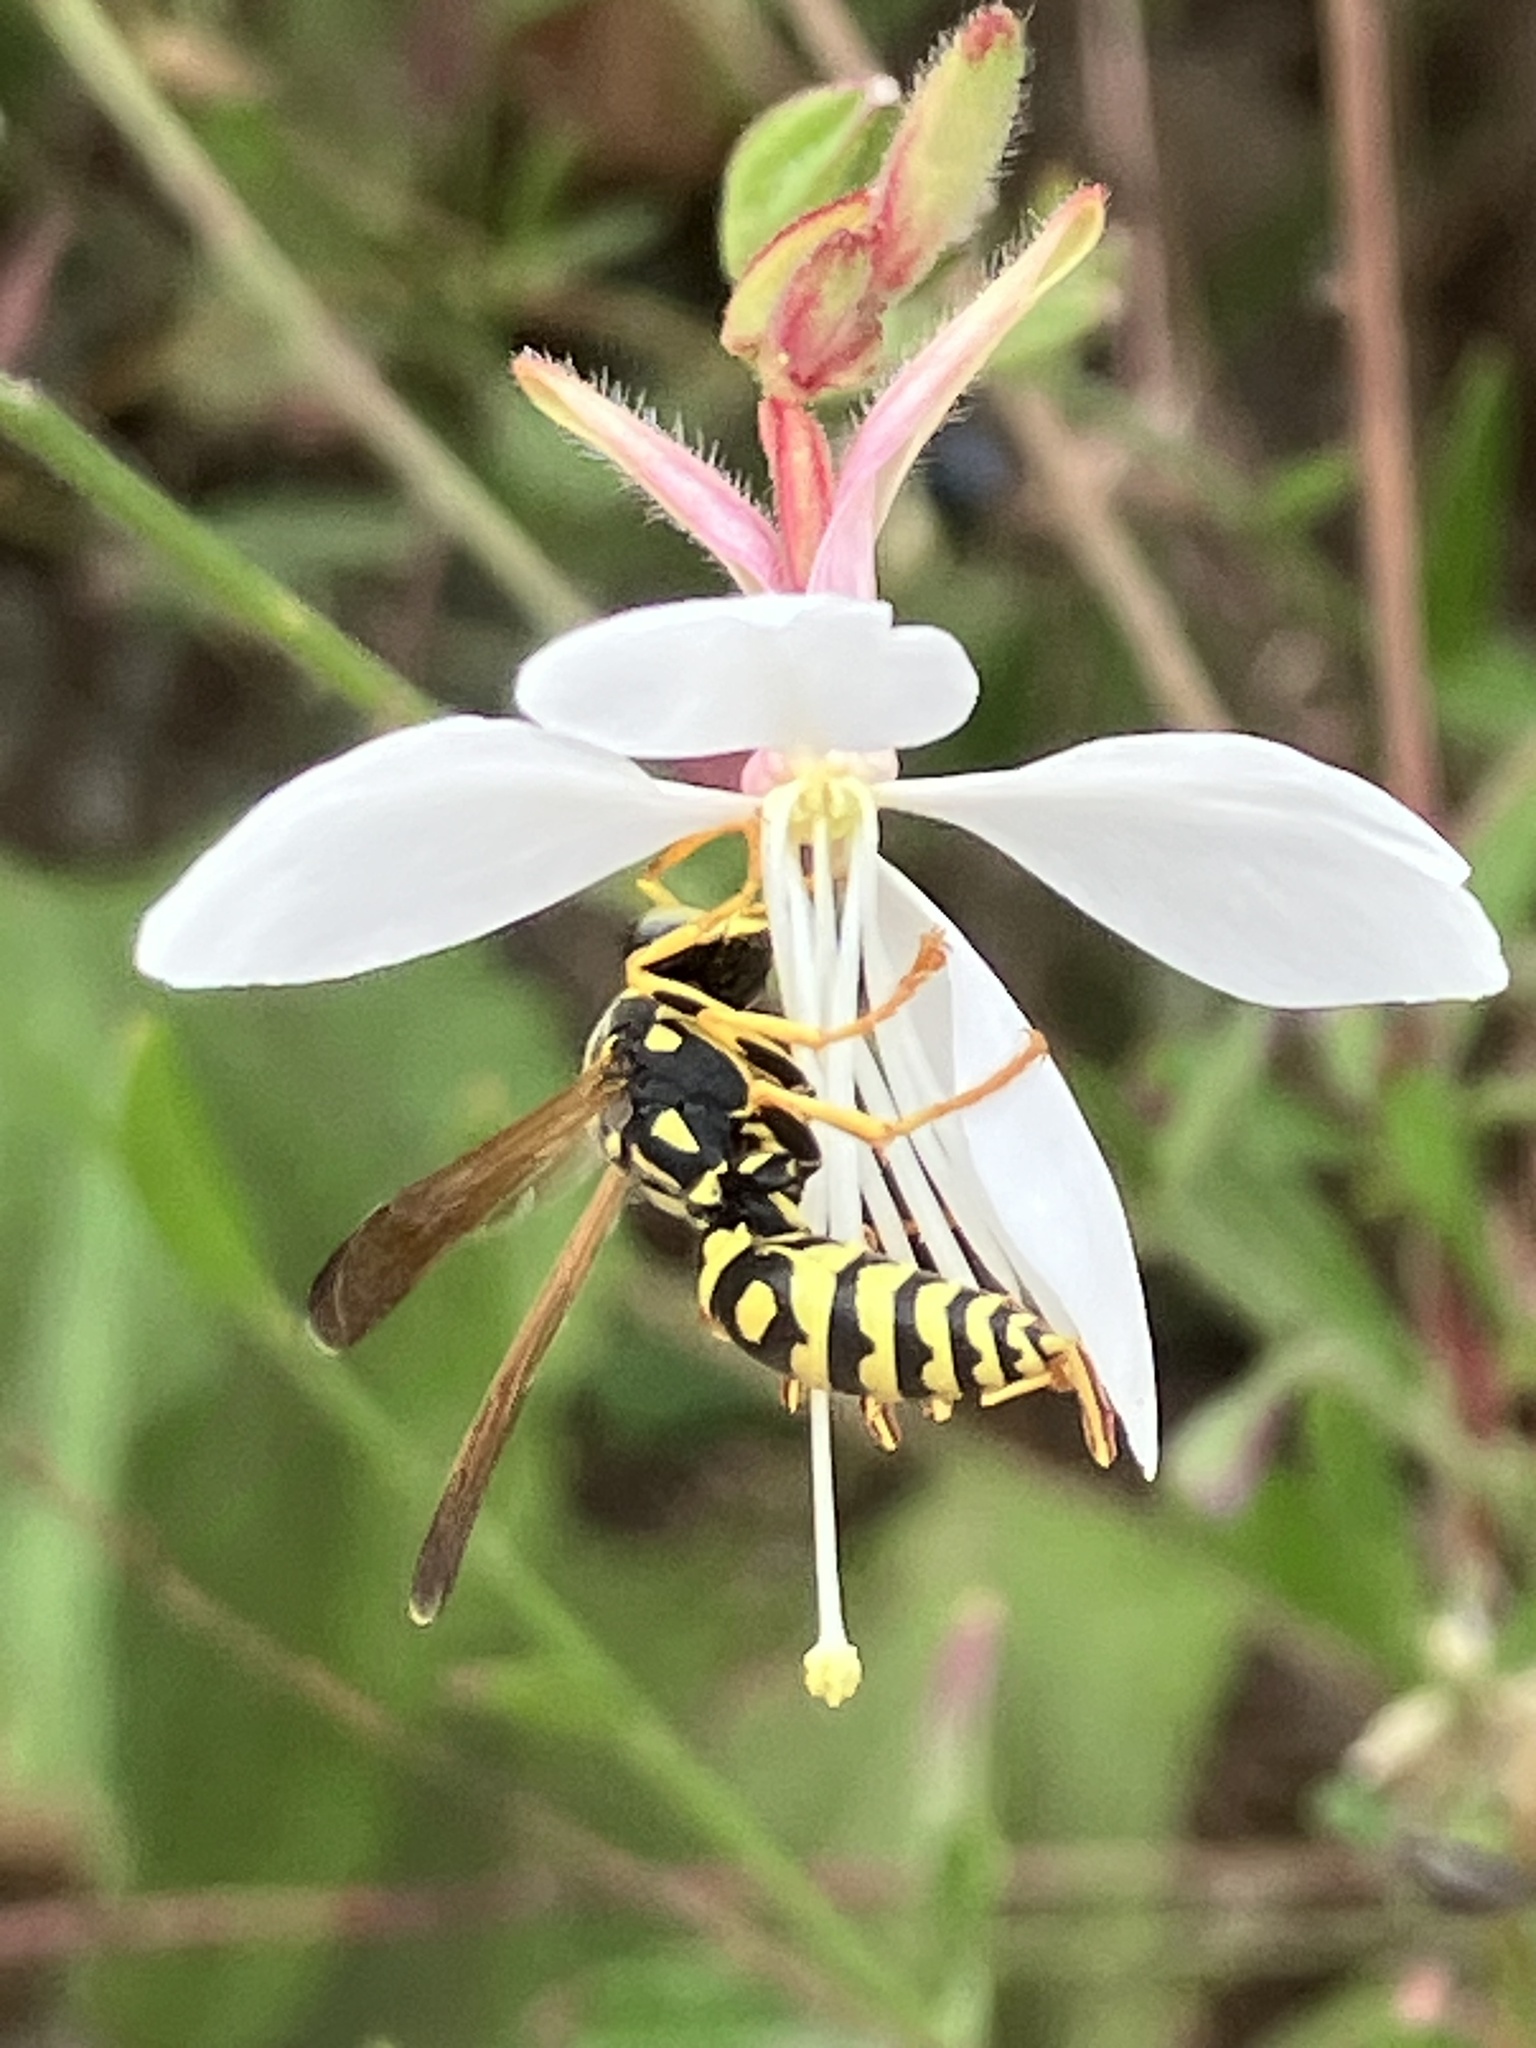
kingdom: Animalia
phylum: Arthropoda
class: Insecta
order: Hymenoptera
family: Eumenidae
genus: Polistes
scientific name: Polistes
